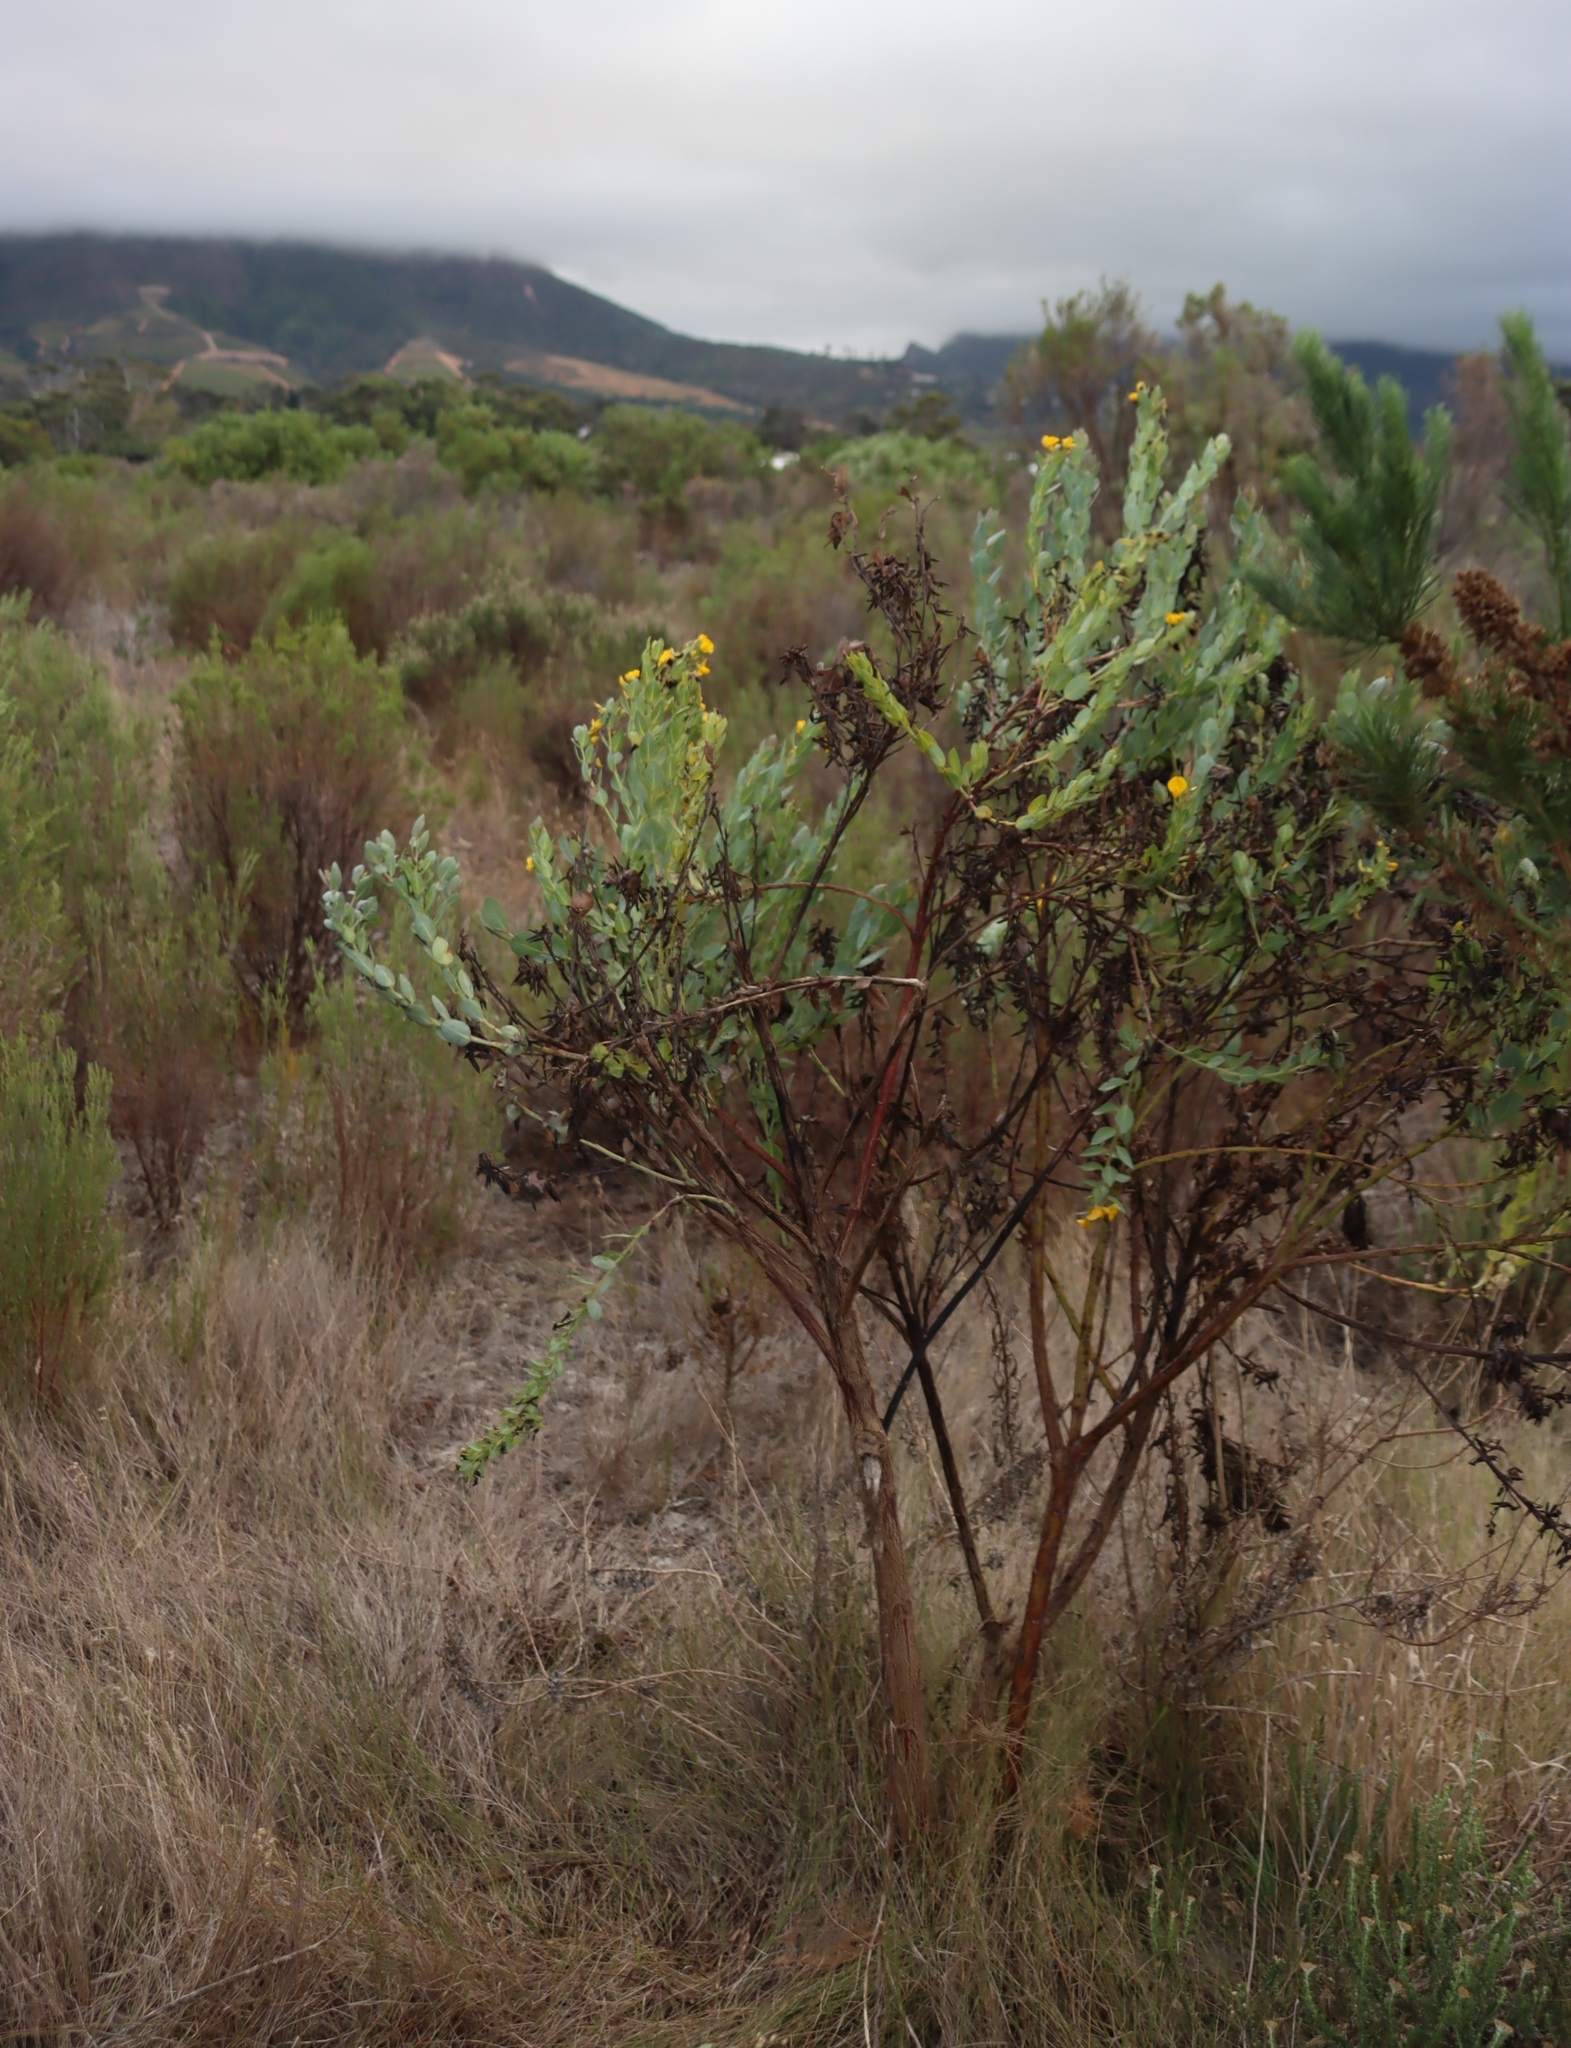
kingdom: Plantae
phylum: Tracheophyta
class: Magnoliopsida
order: Fabales
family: Fabaceae
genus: Rafnia
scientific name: Rafnia triflora
